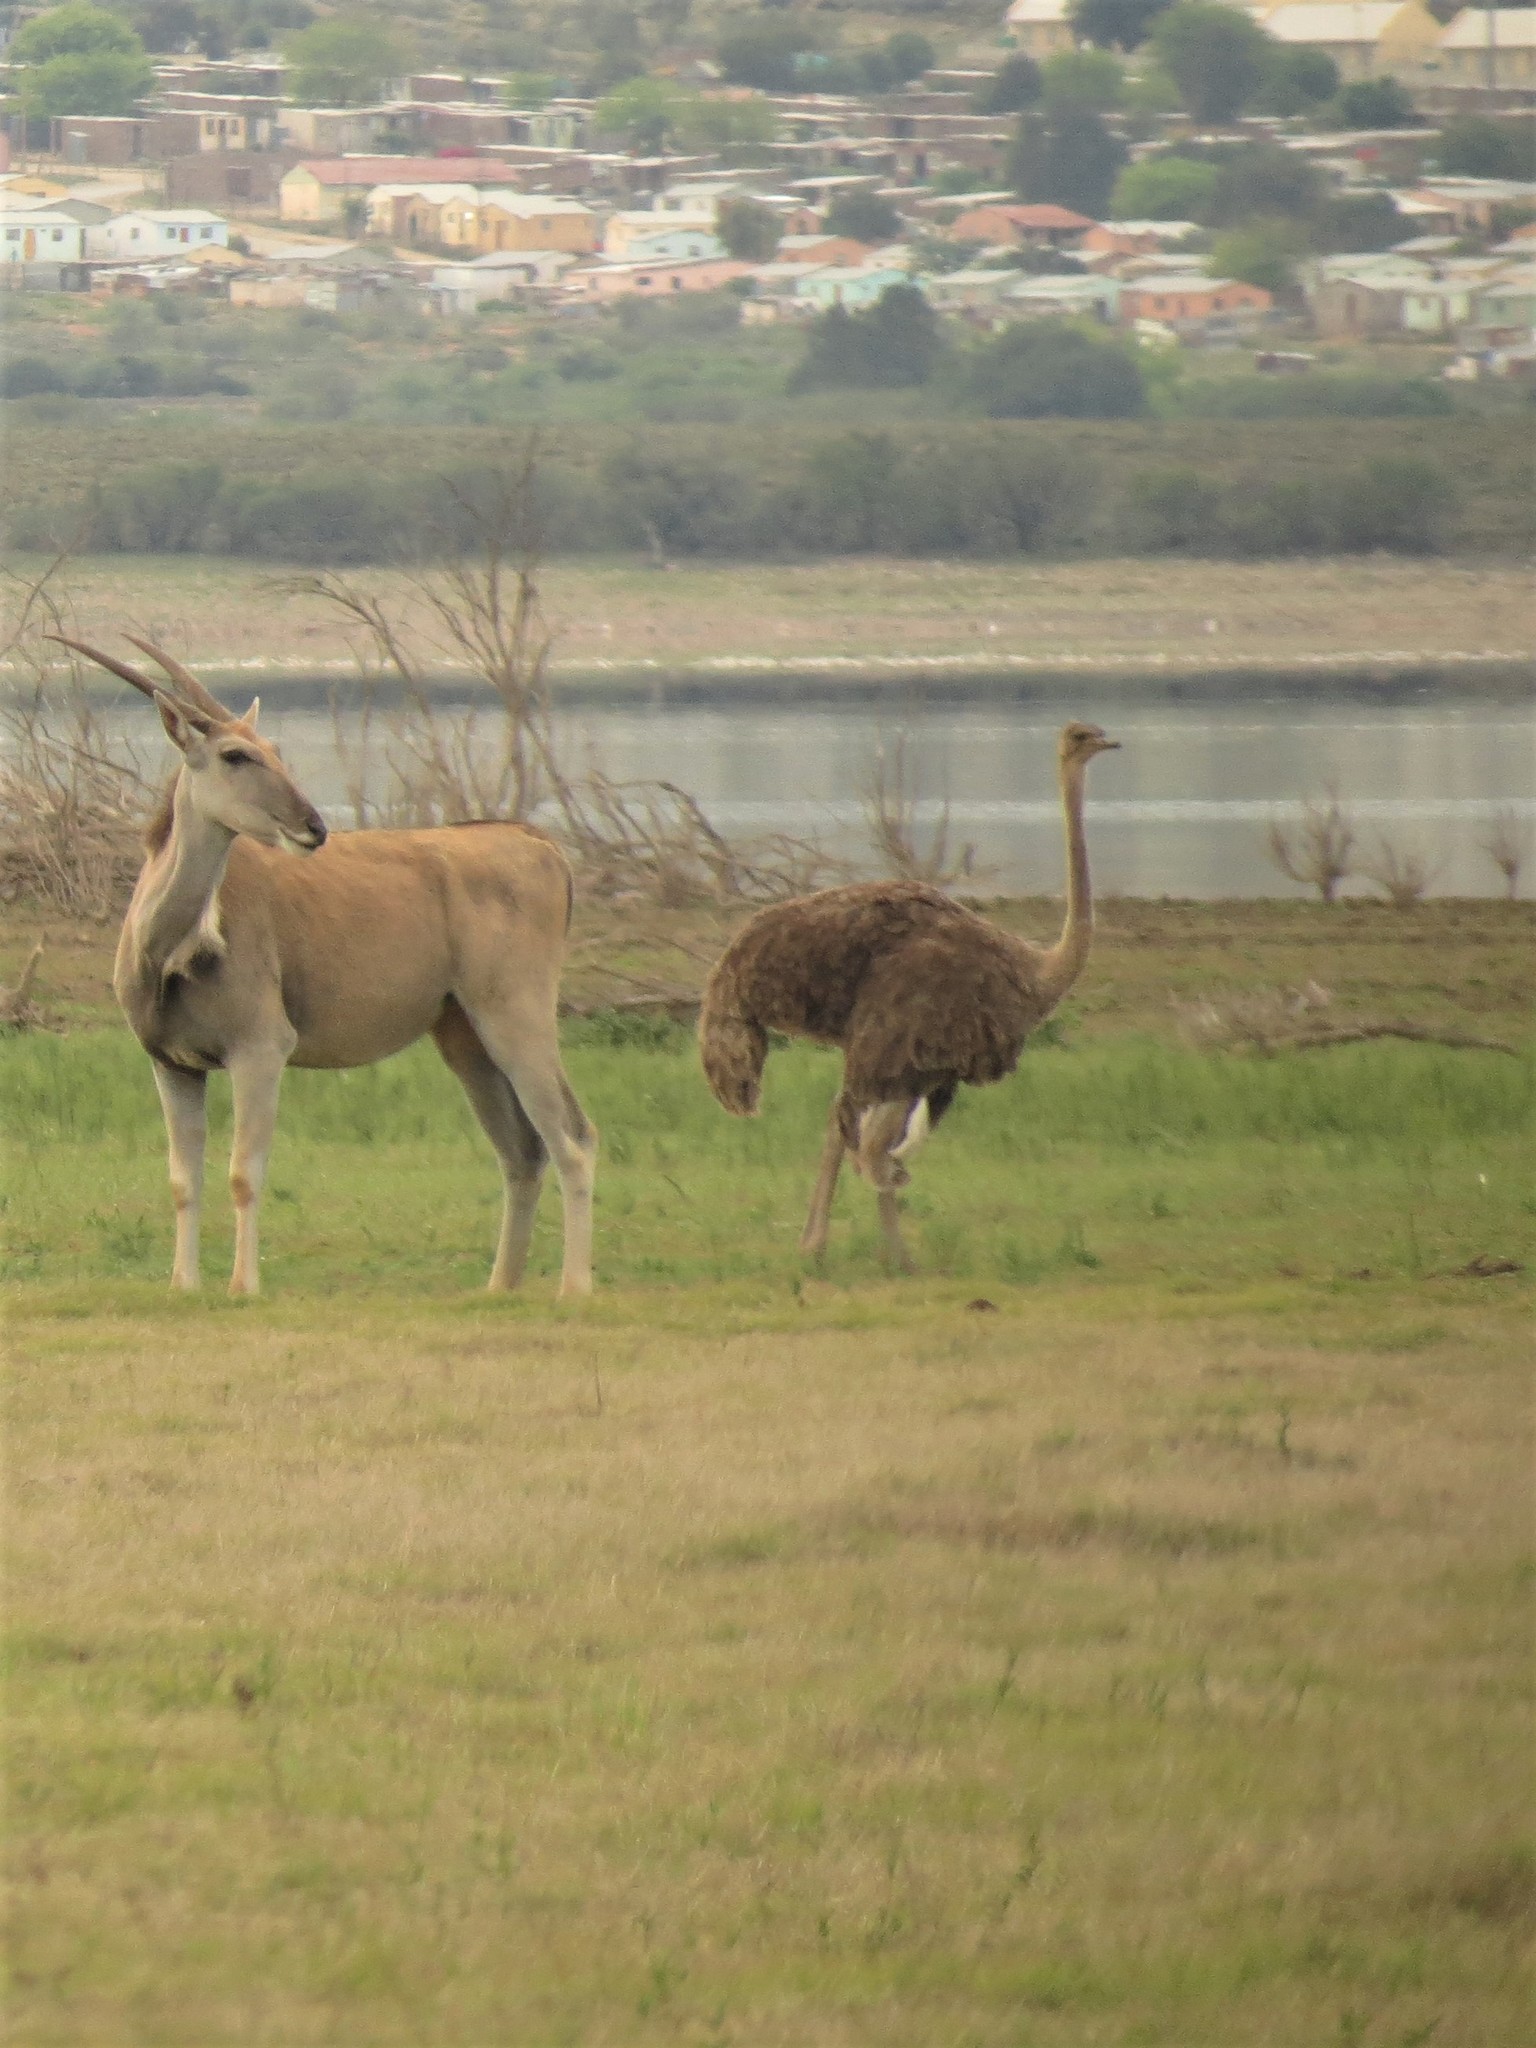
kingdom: Animalia
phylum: Chordata
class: Aves
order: Struthioniformes
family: Struthionidae
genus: Struthio
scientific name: Struthio camelus
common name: Common ostrich
